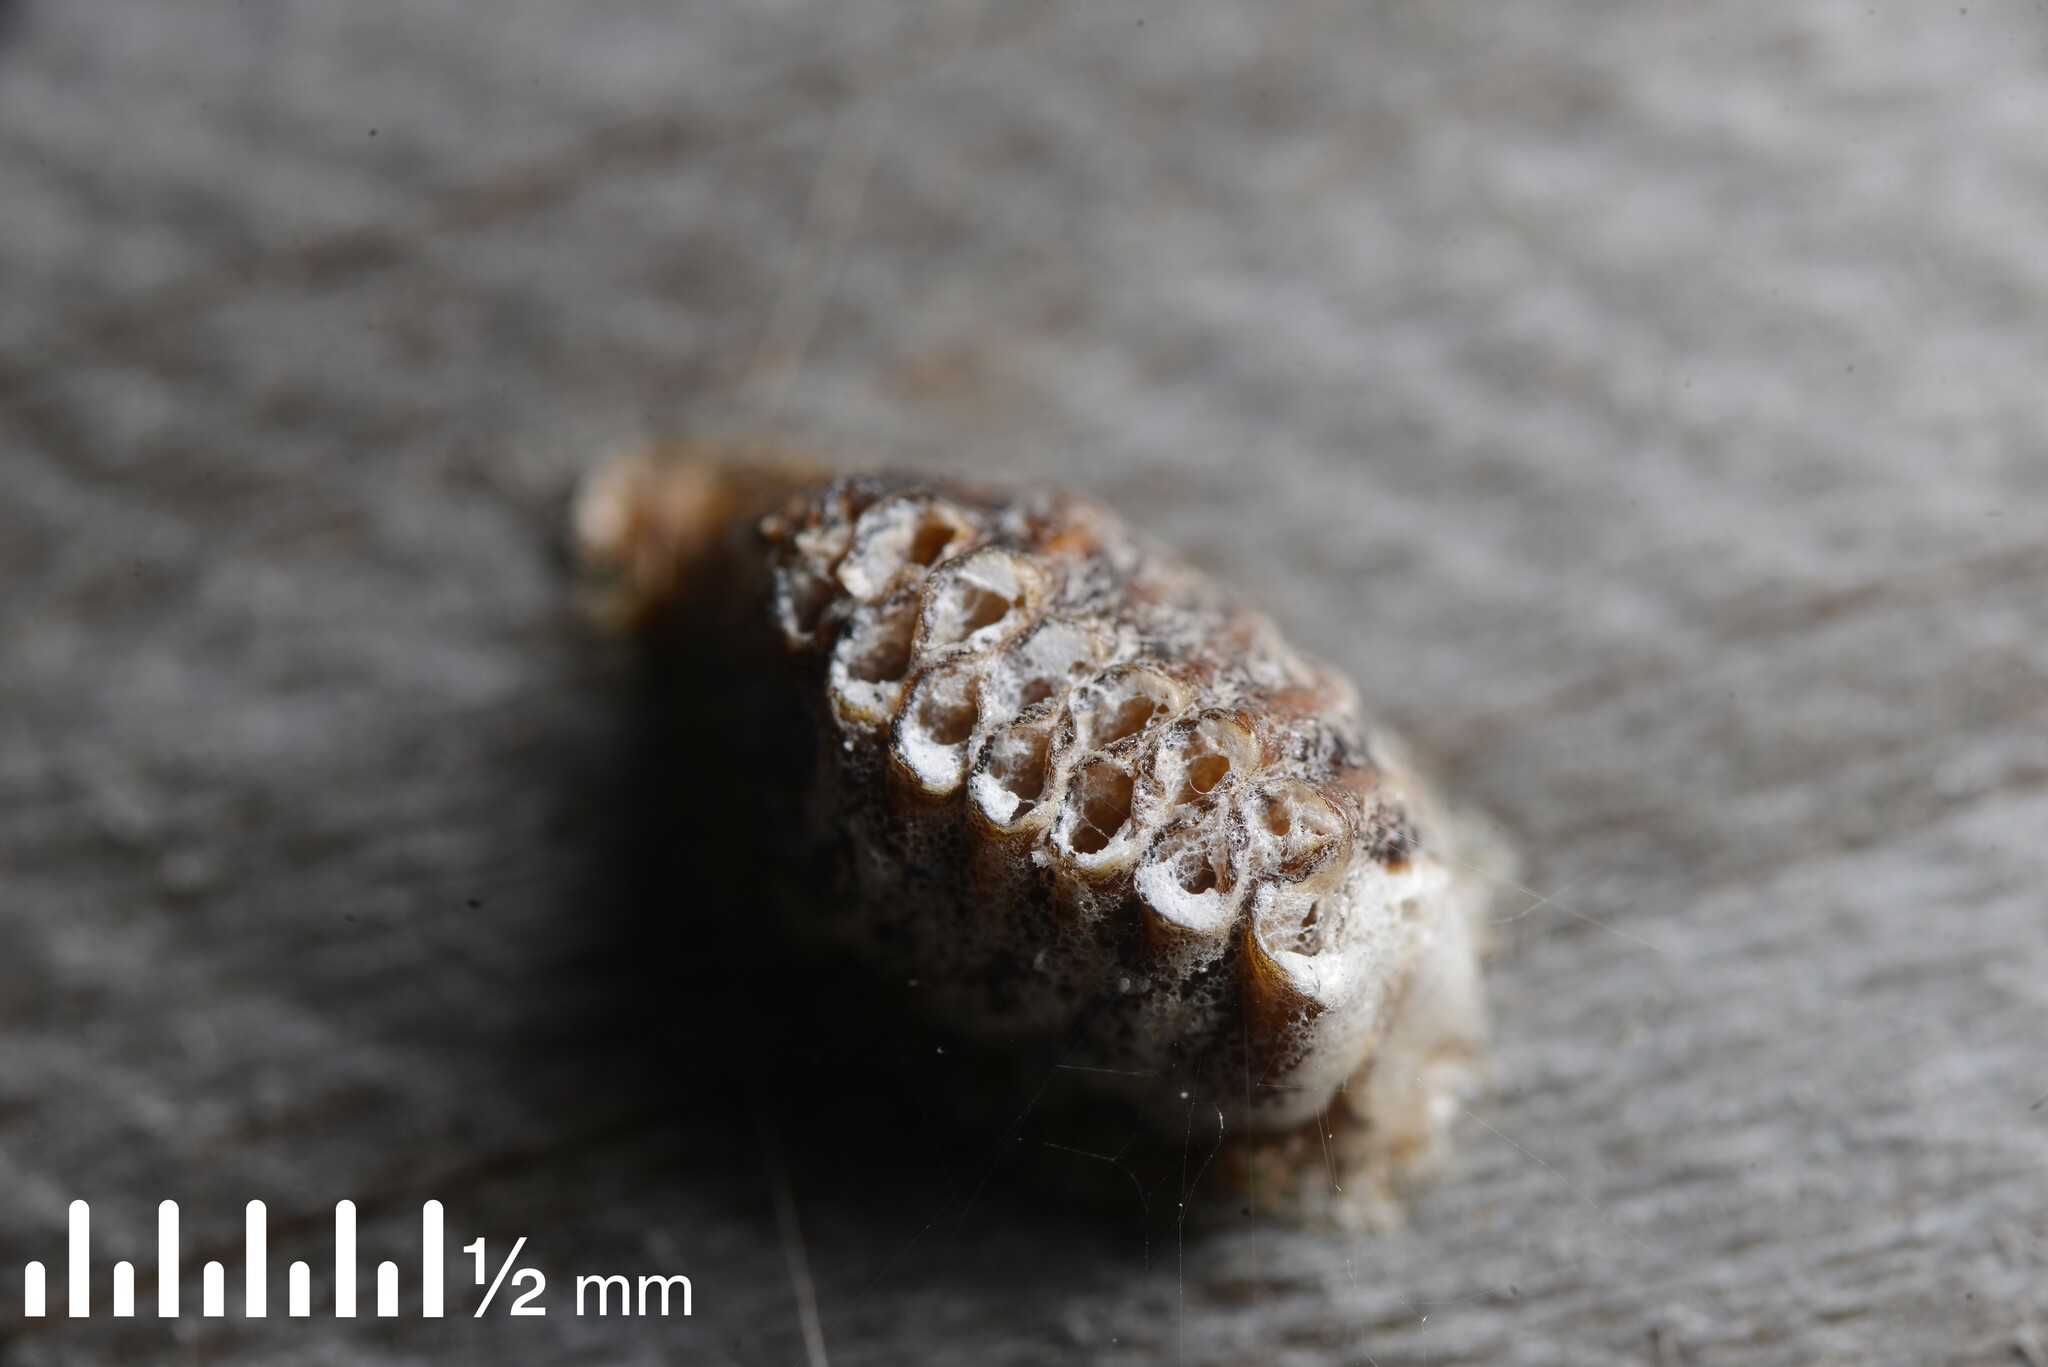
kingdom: Animalia
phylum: Arthropoda
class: Insecta
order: Mantodea
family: Mantidae
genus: Orthodera
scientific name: Orthodera novaezealandiae
